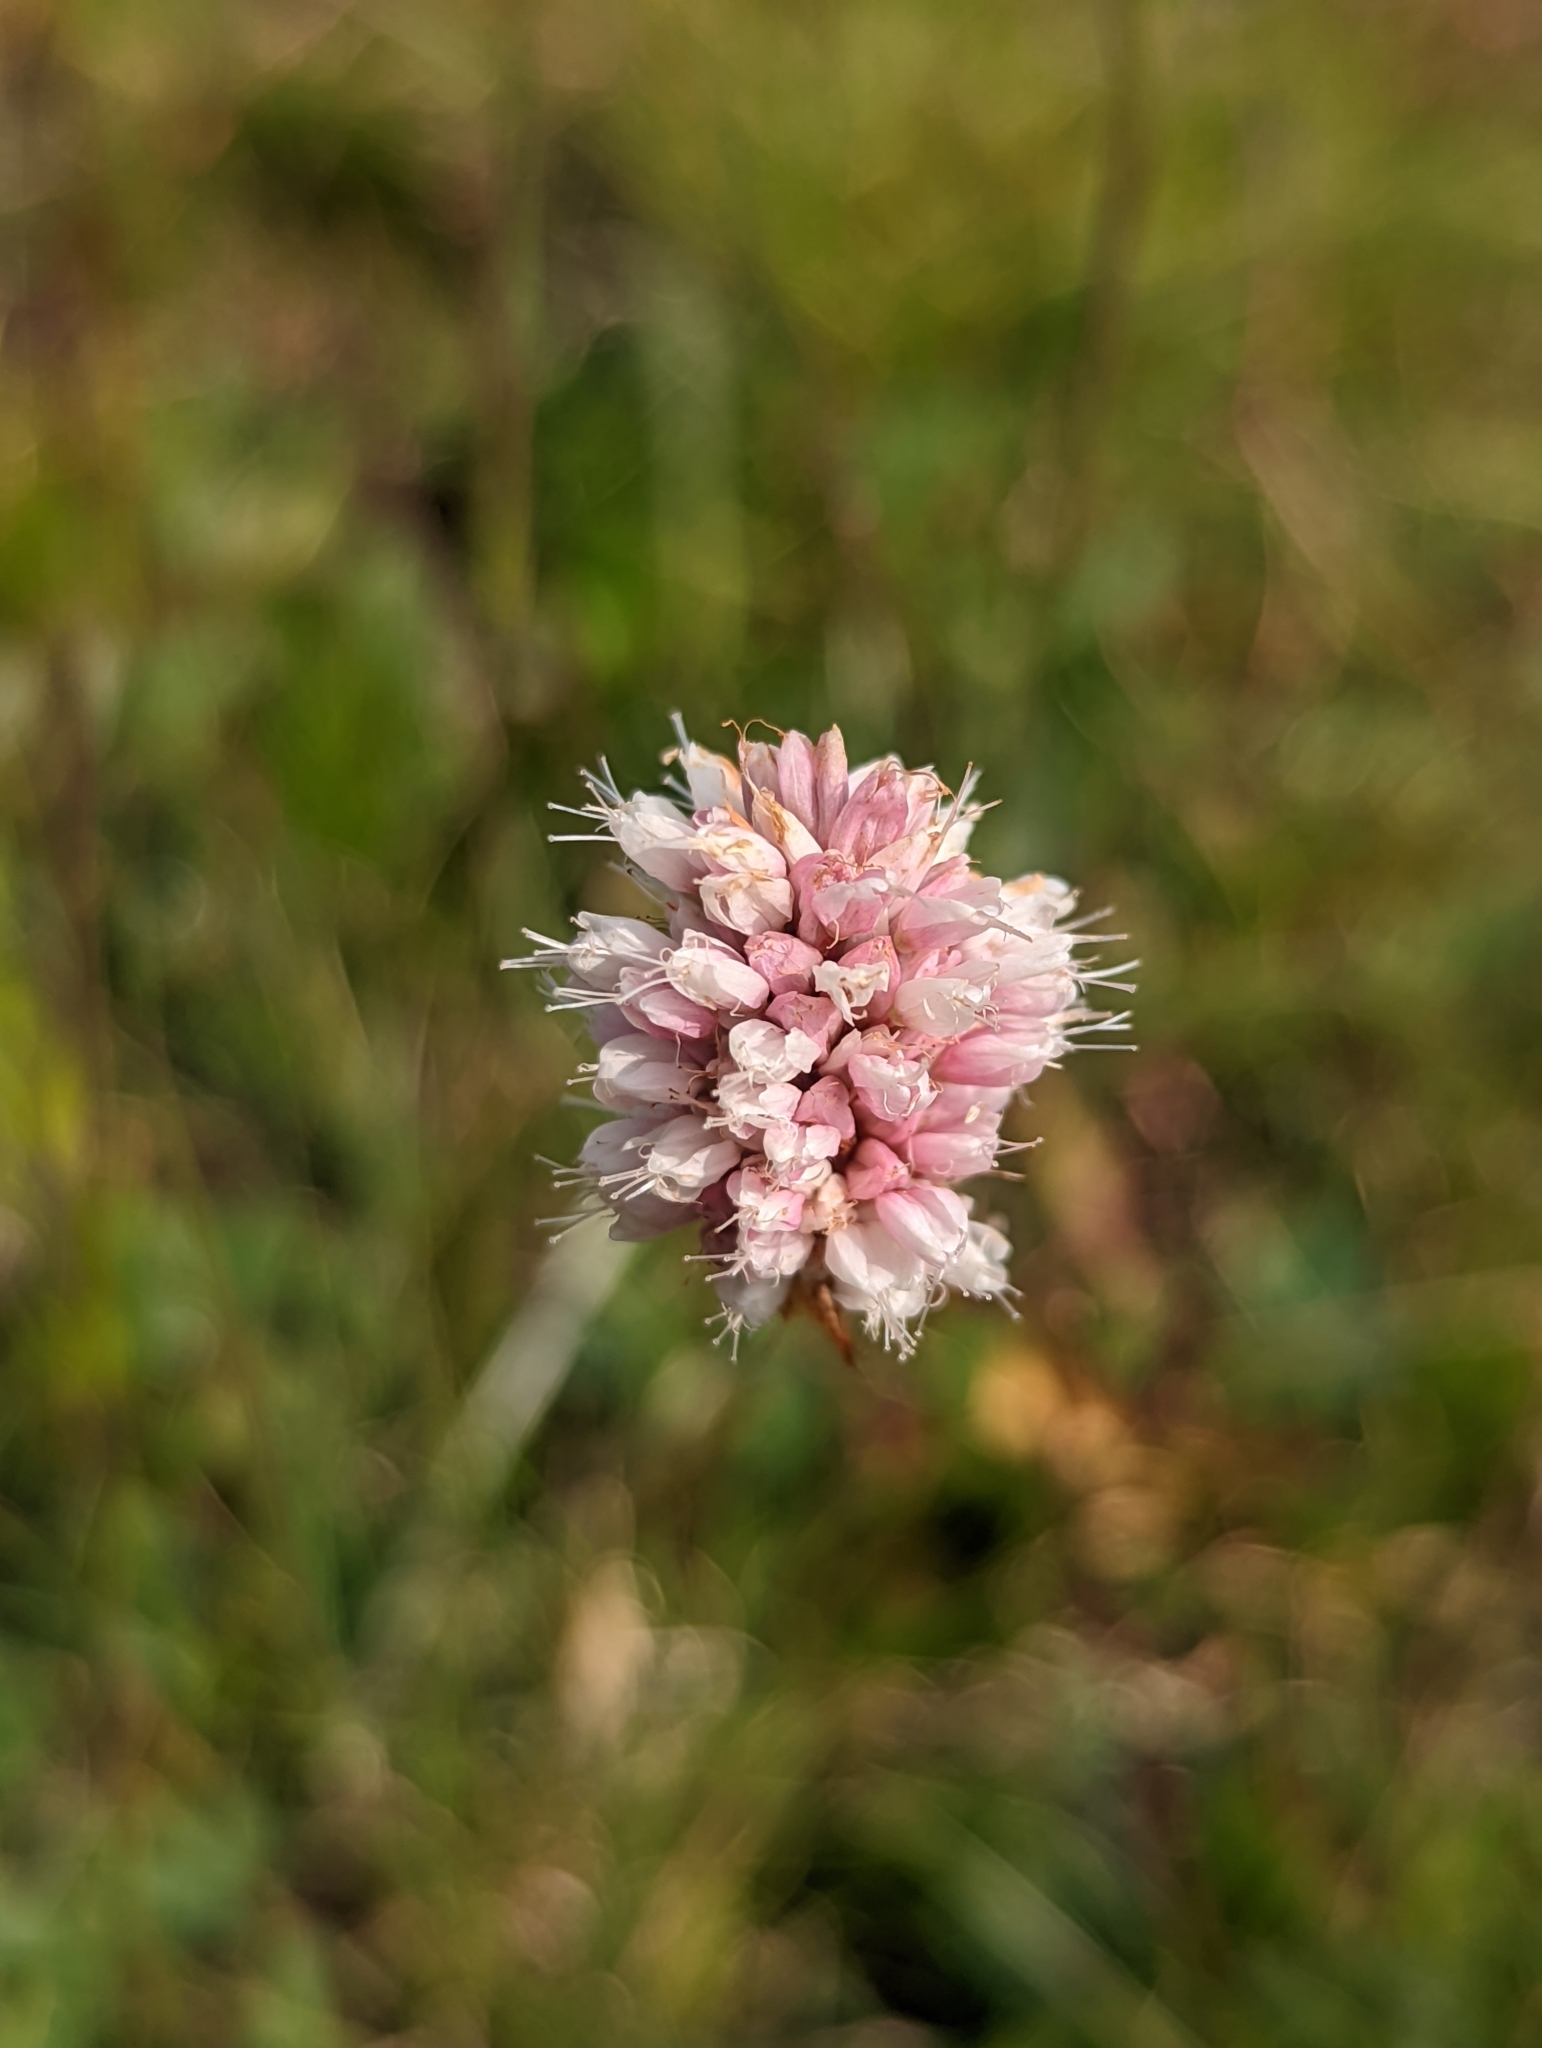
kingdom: Plantae
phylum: Tracheophyta
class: Magnoliopsida
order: Caryophyllales
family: Polygonaceae
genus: Bistorta
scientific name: Bistorta bistortoides
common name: American bistort
